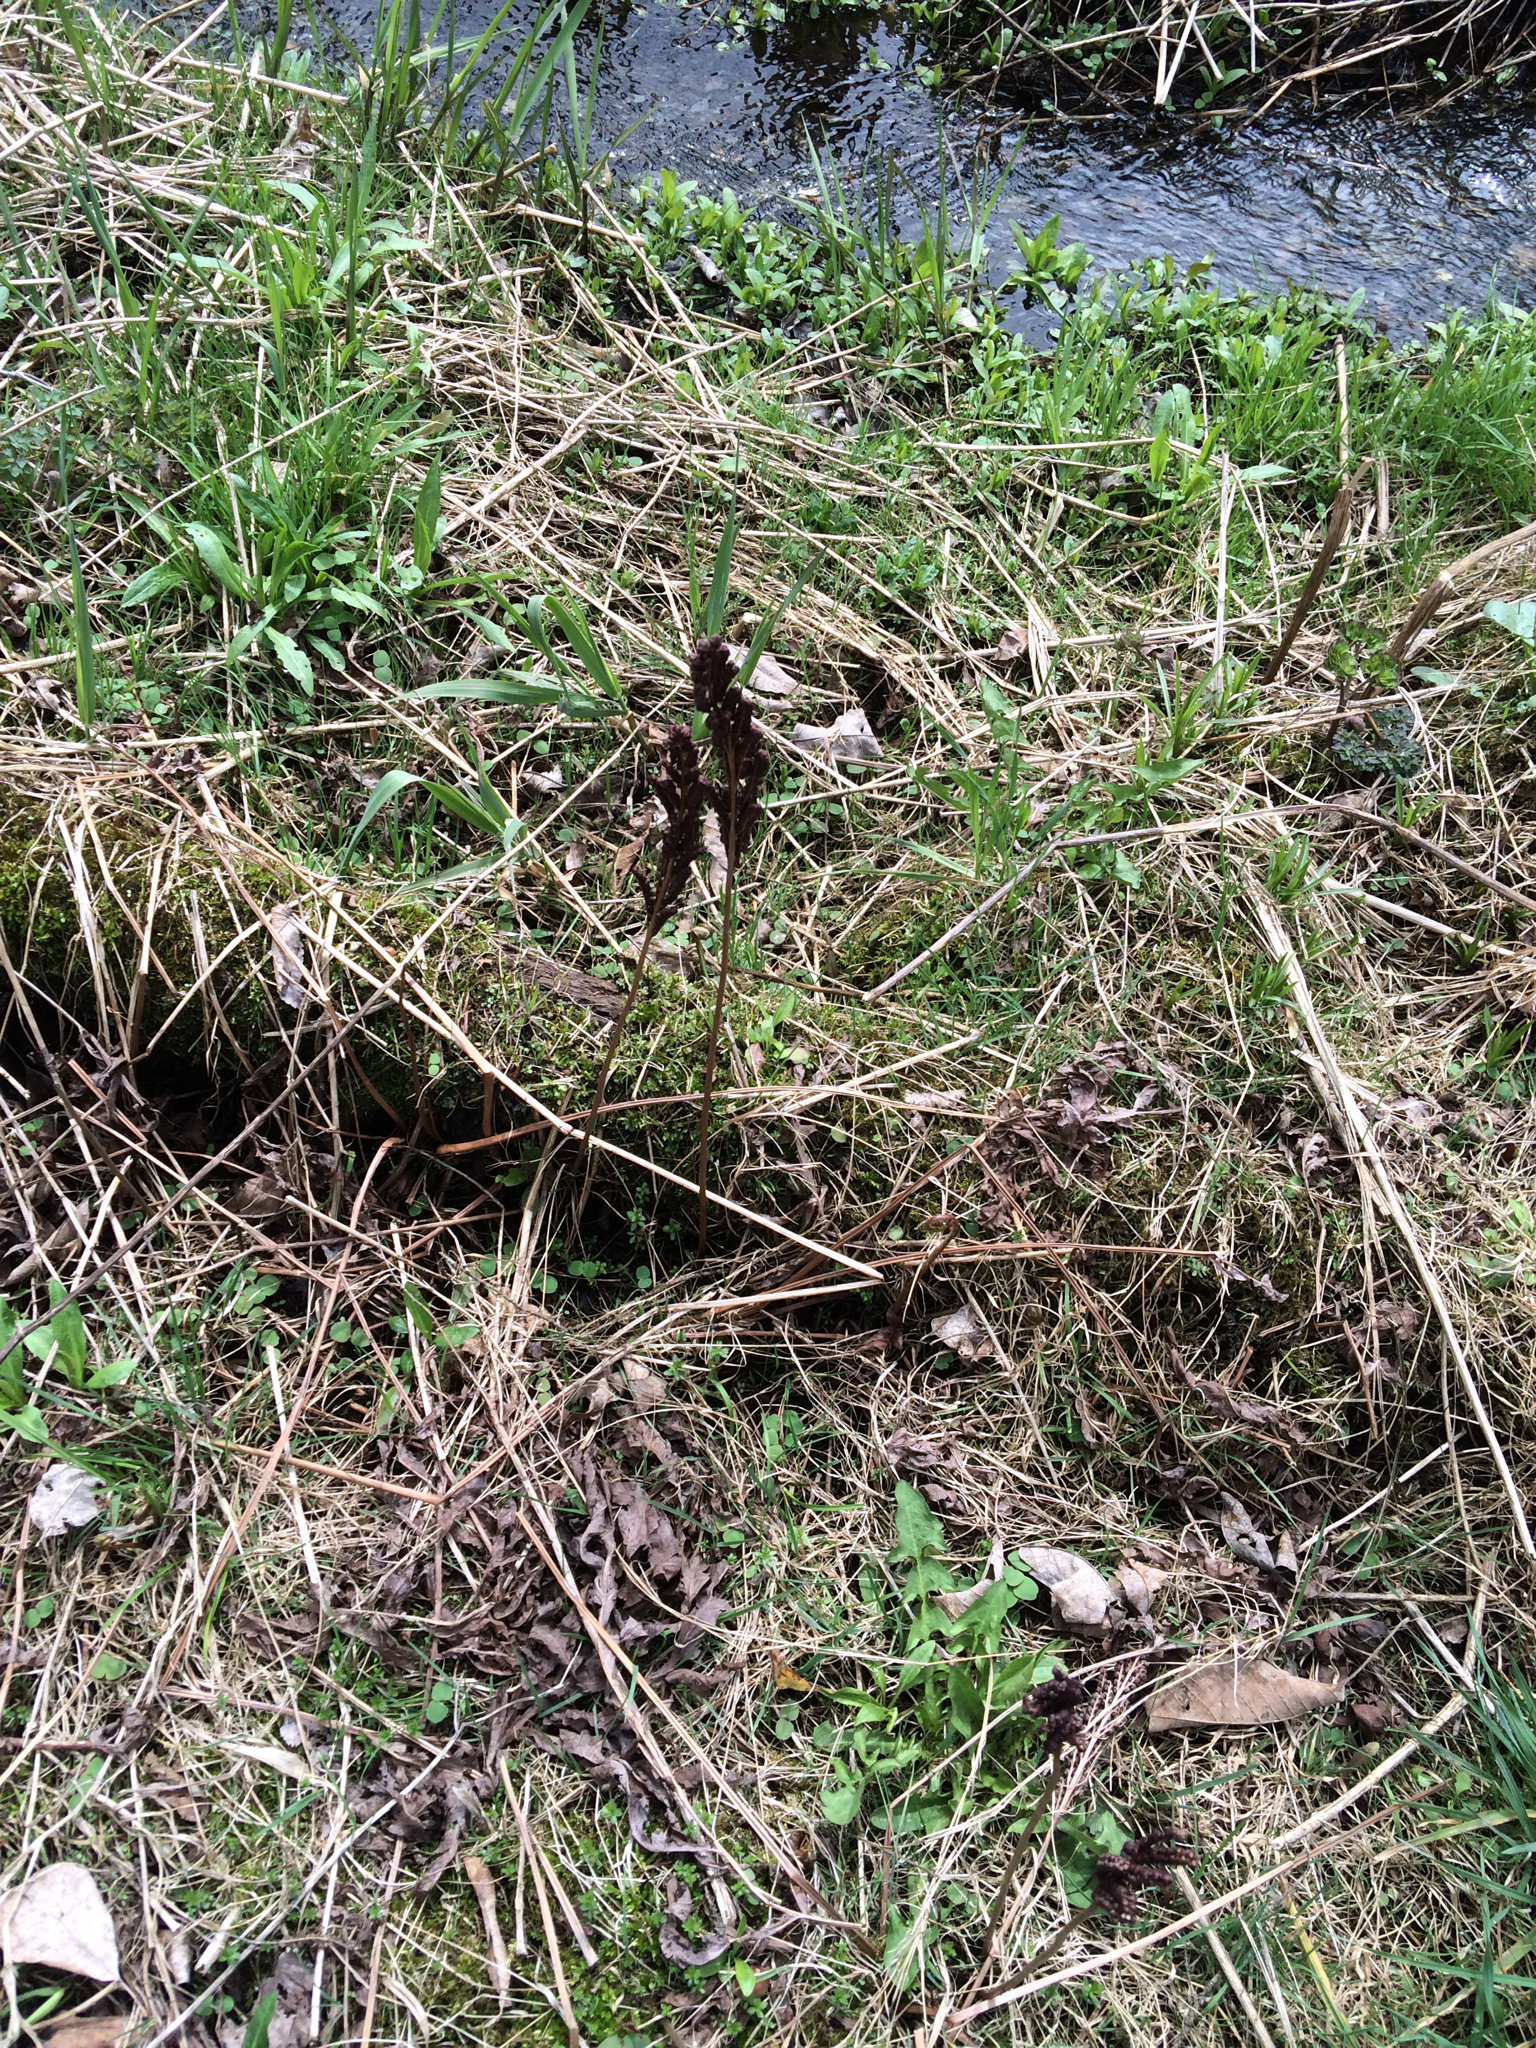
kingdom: Plantae
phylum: Tracheophyta
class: Polypodiopsida
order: Polypodiales
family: Onocleaceae
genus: Onoclea
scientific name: Onoclea sensibilis
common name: Sensitive fern
